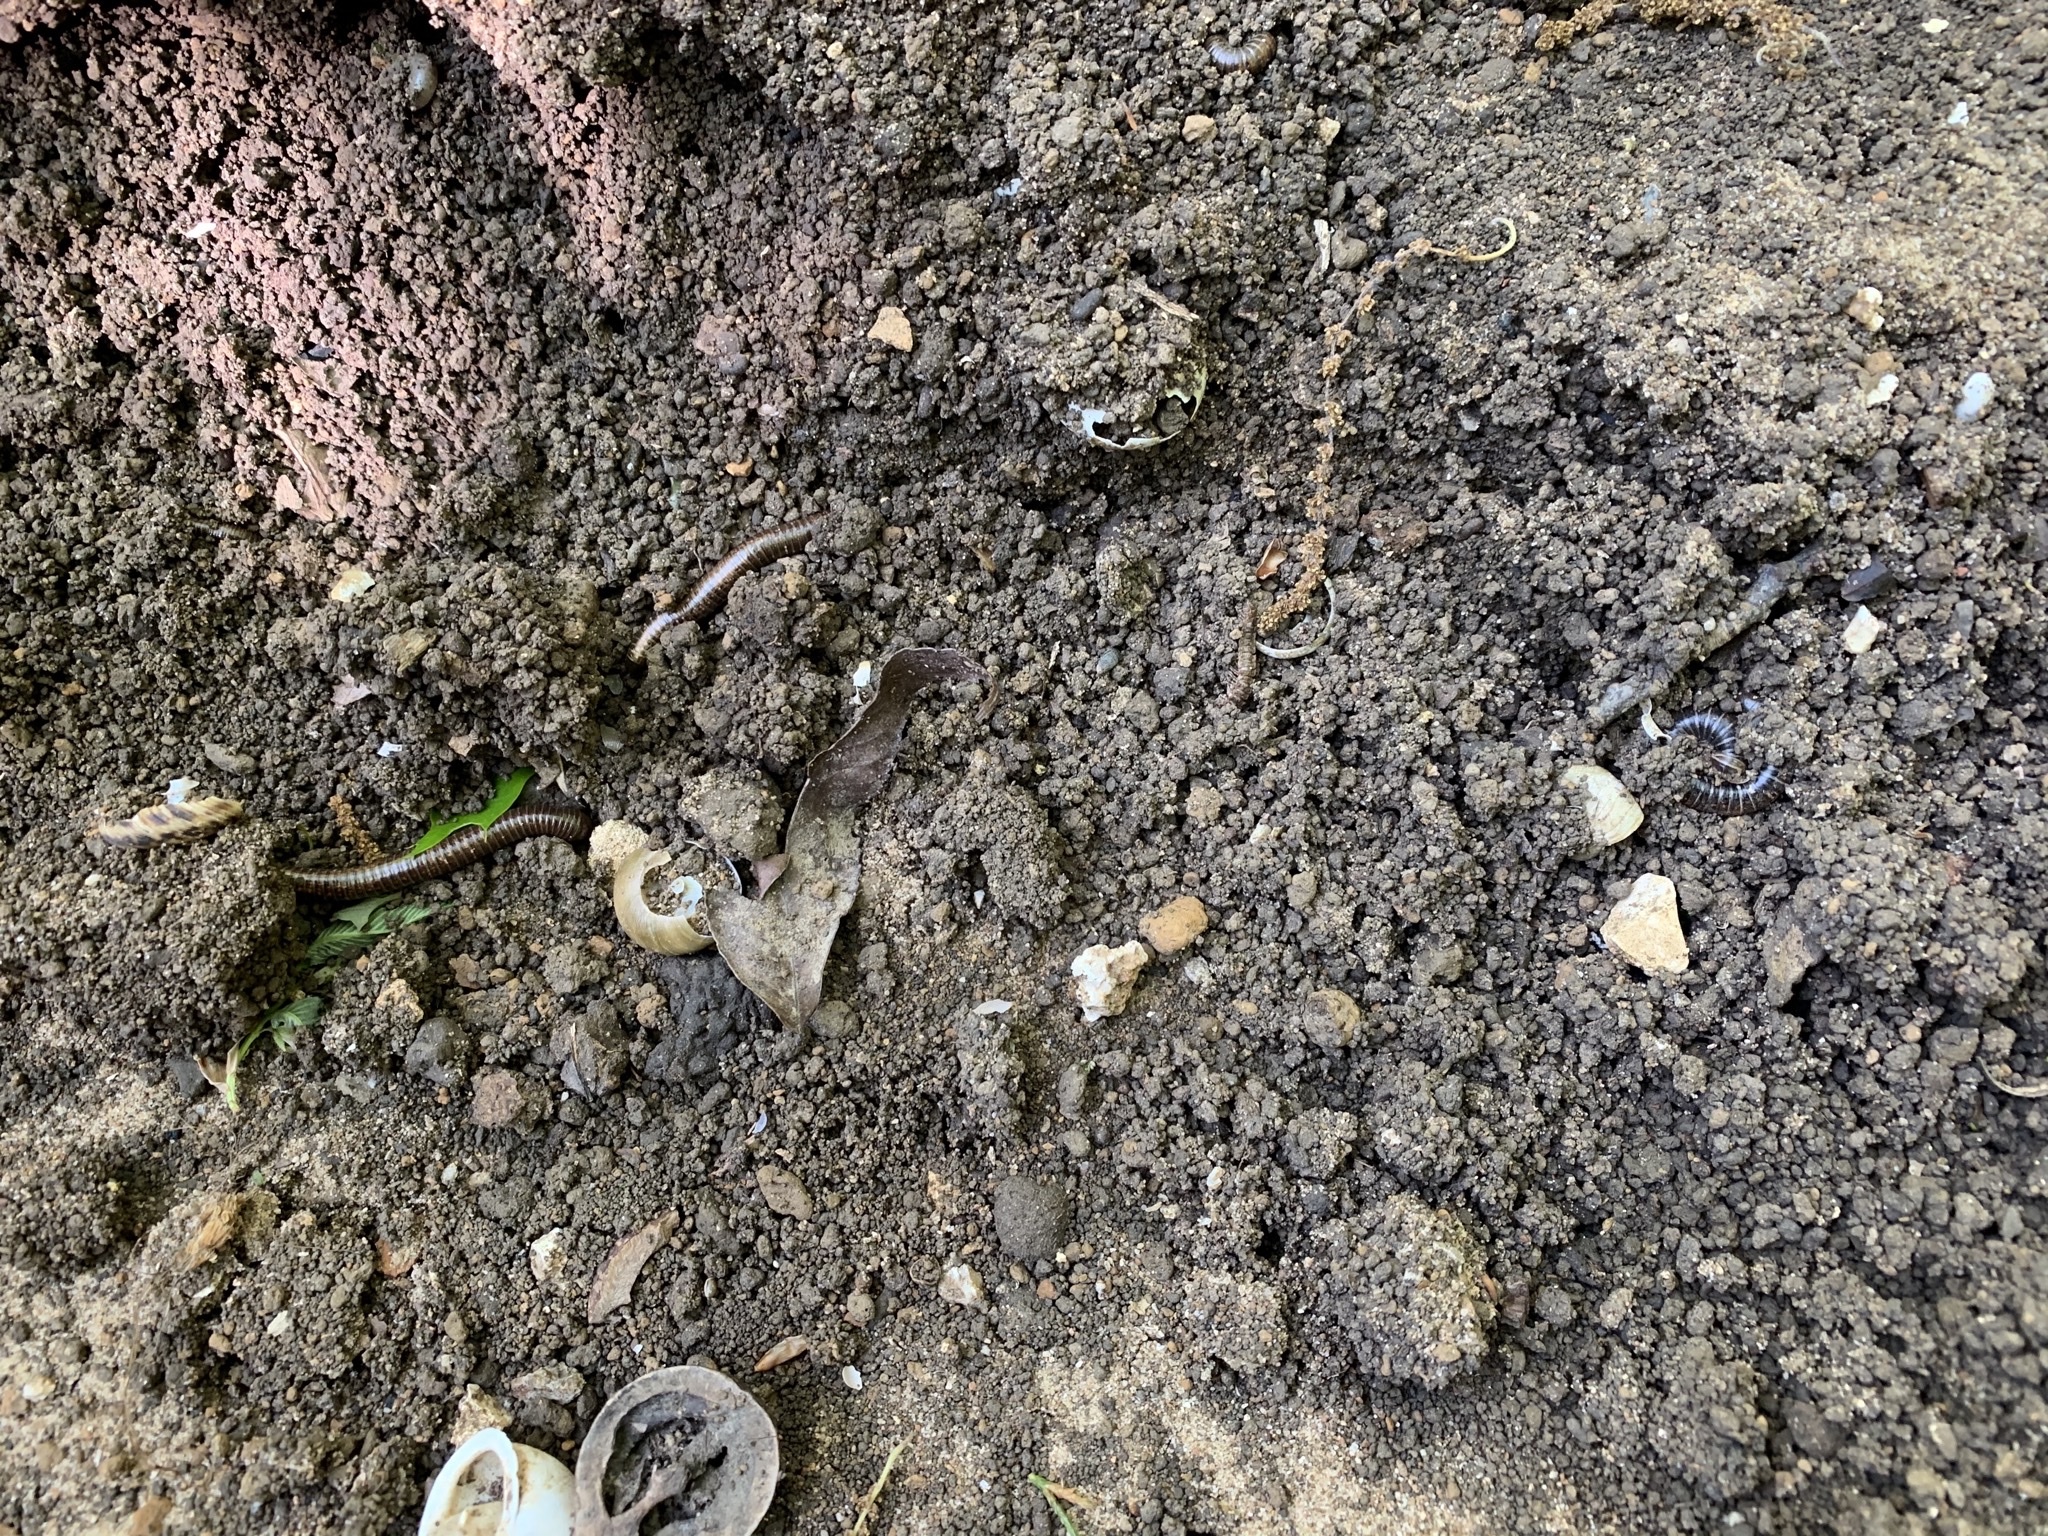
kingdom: Animalia
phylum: Arthropoda
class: Diplopoda
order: Spirostreptida
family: Choctellidae
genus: Choctella
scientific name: Choctella cumminsi
